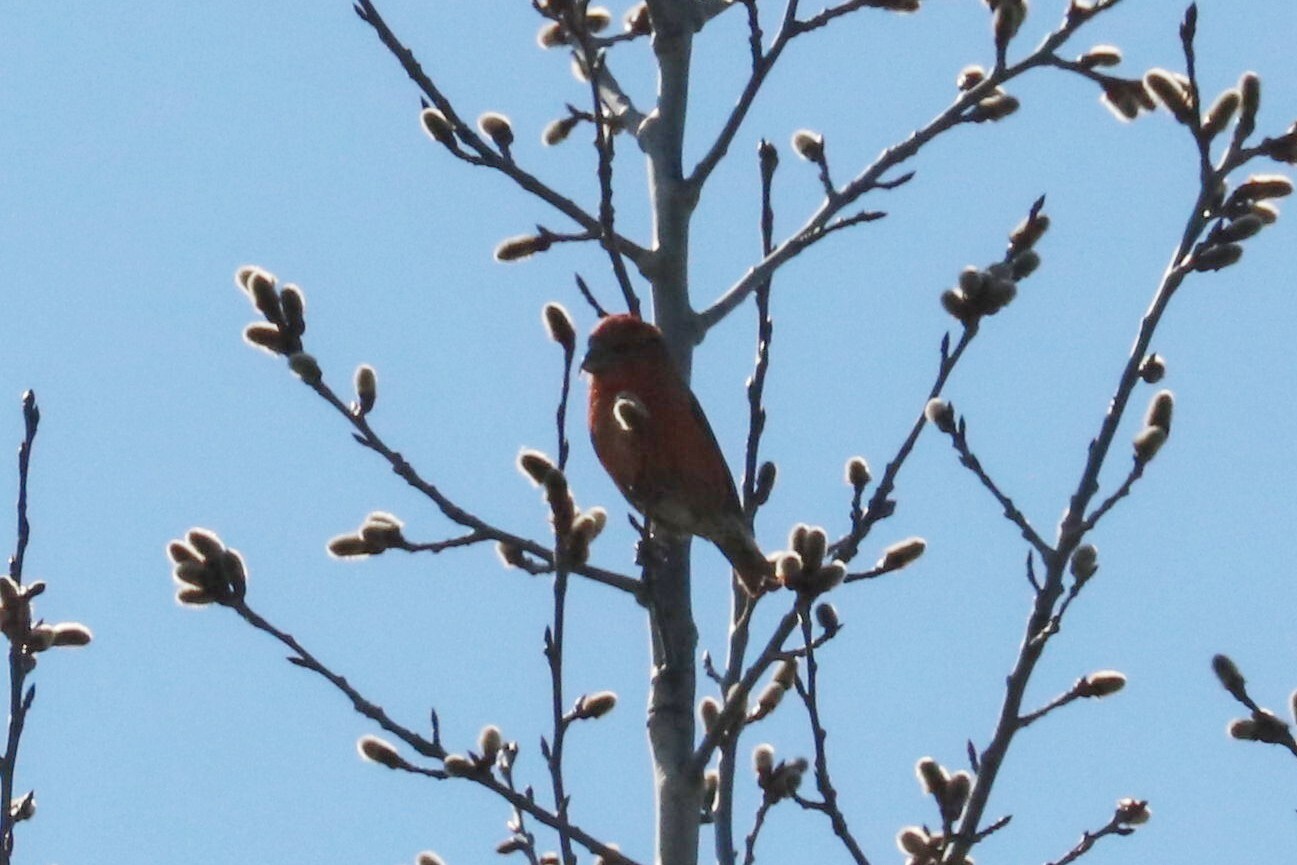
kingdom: Animalia
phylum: Chordata
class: Aves
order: Passeriformes
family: Fringillidae
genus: Loxia
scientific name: Loxia curvirostra
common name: Red crossbill
